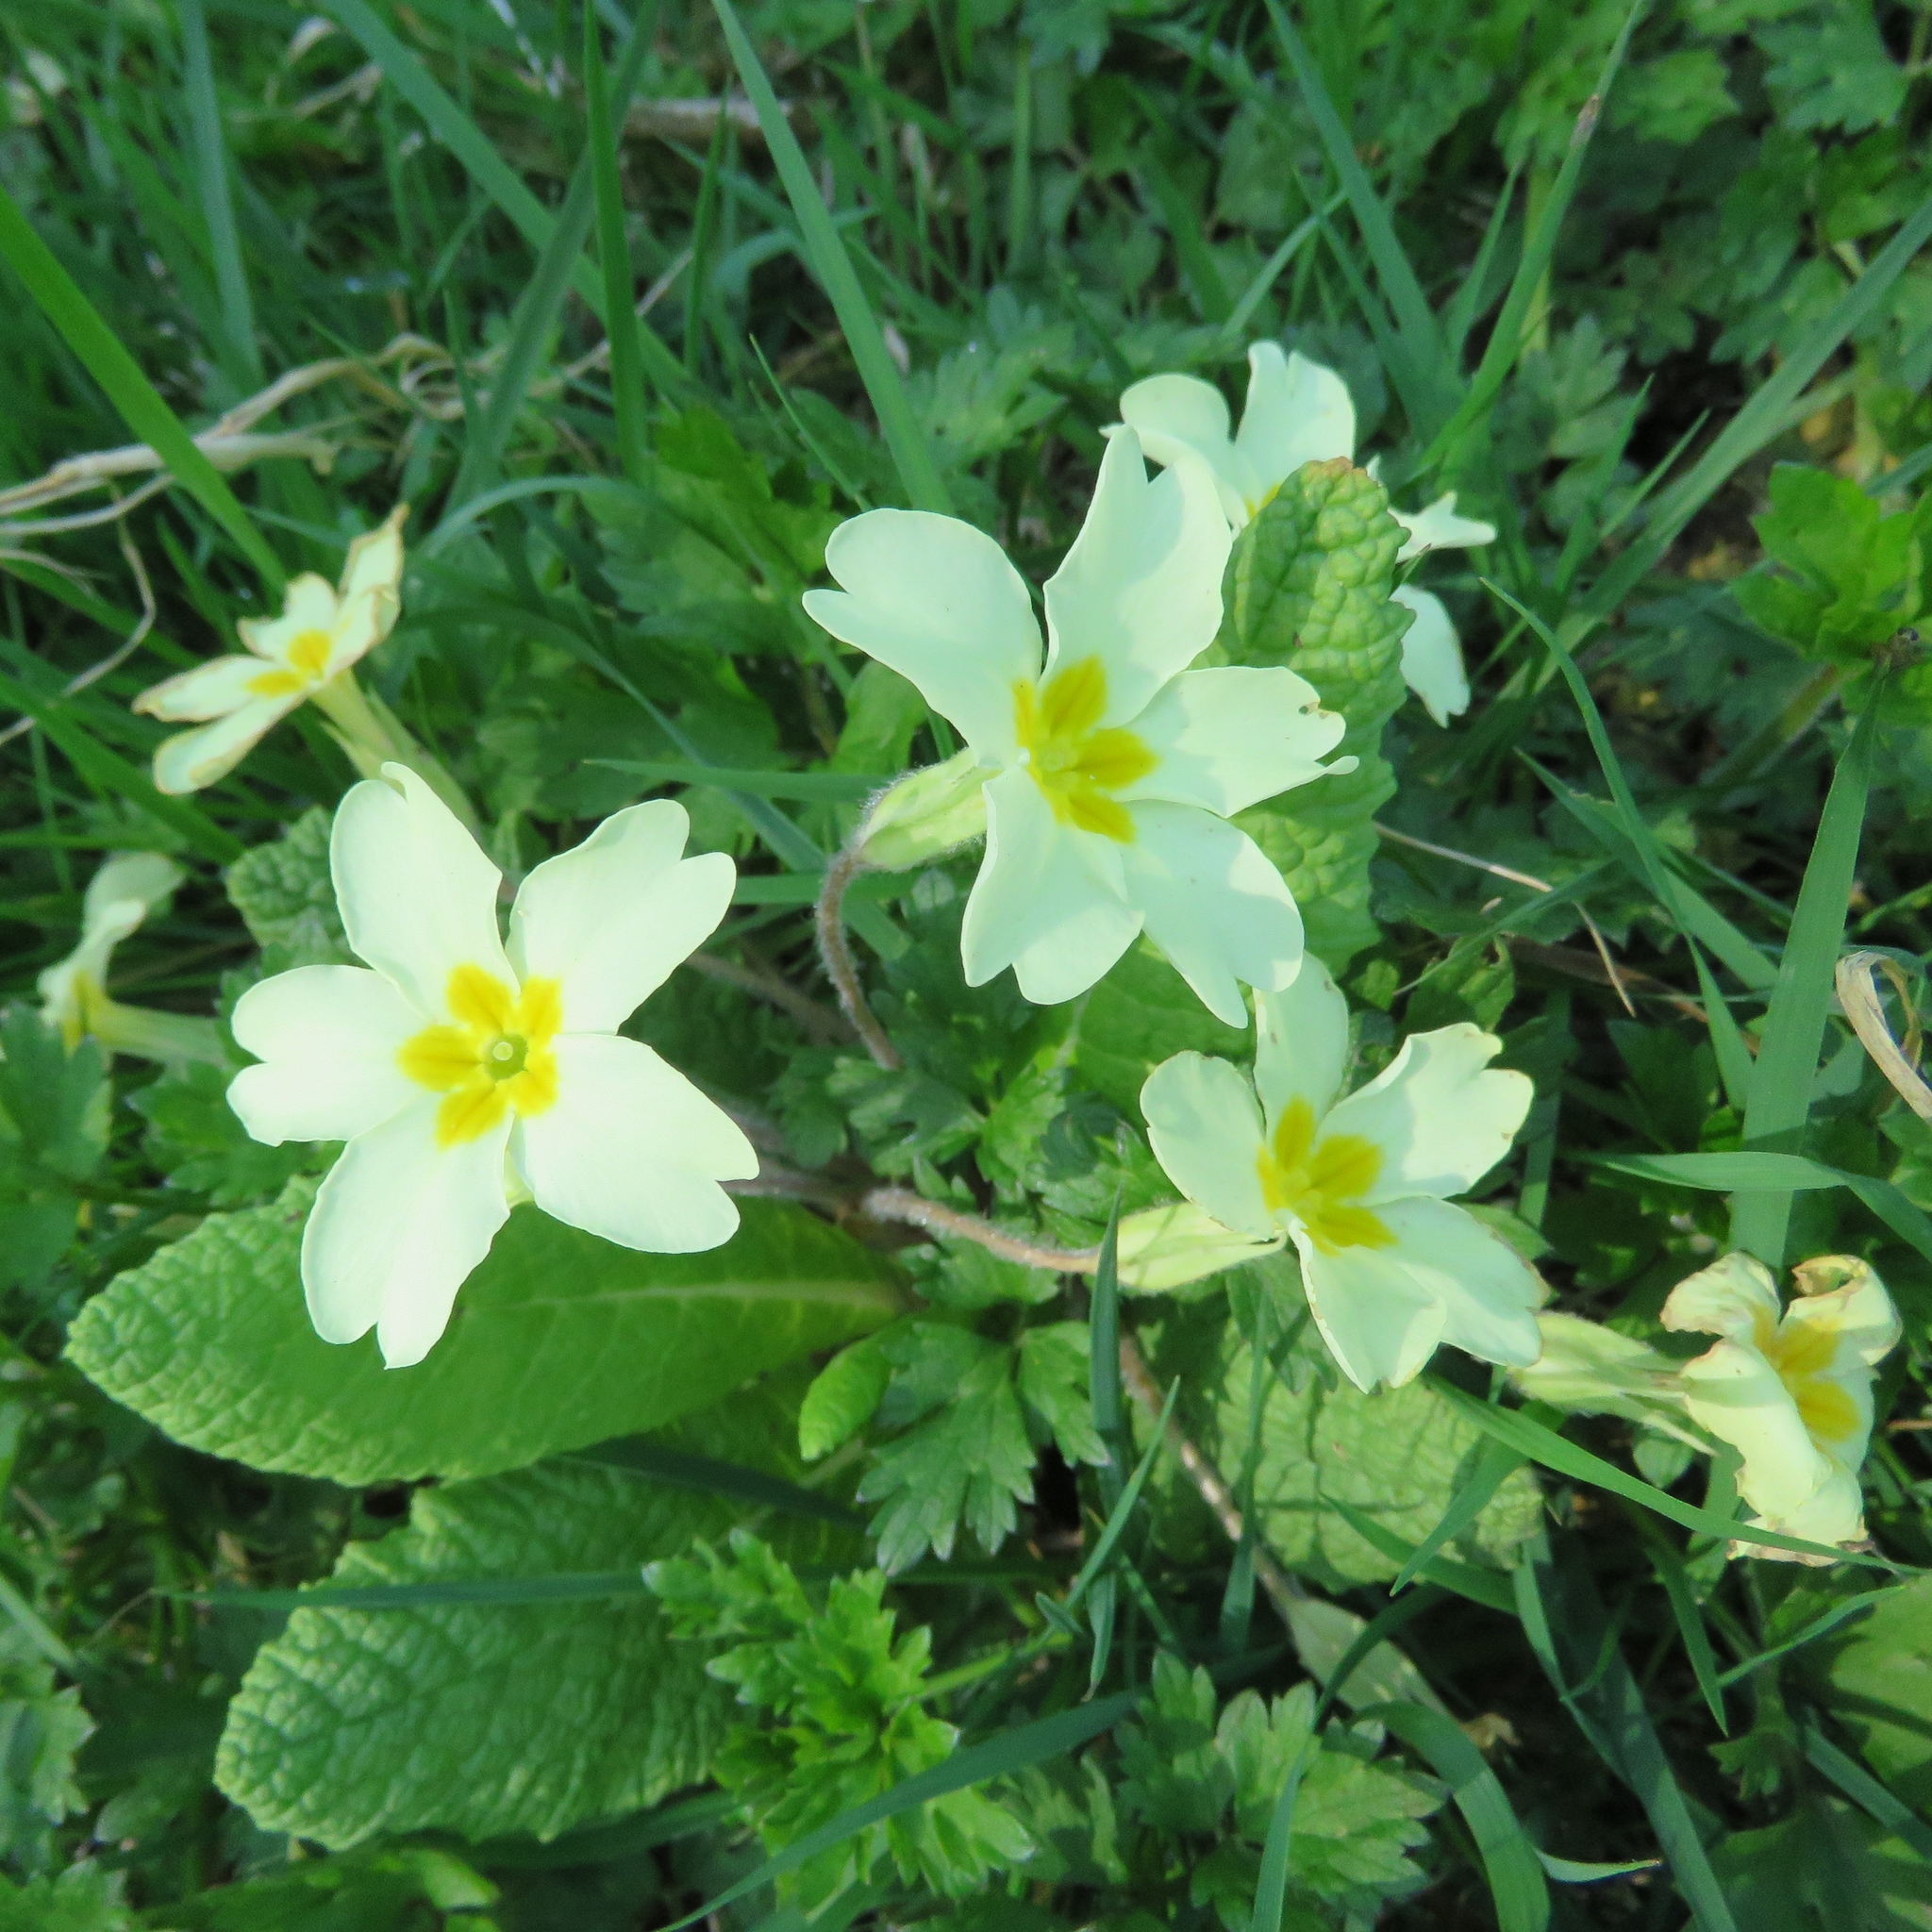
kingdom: Plantae
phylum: Tracheophyta
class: Magnoliopsida
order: Ericales
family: Primulaceae
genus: Primula
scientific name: Primula vulgaris
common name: Primrose
